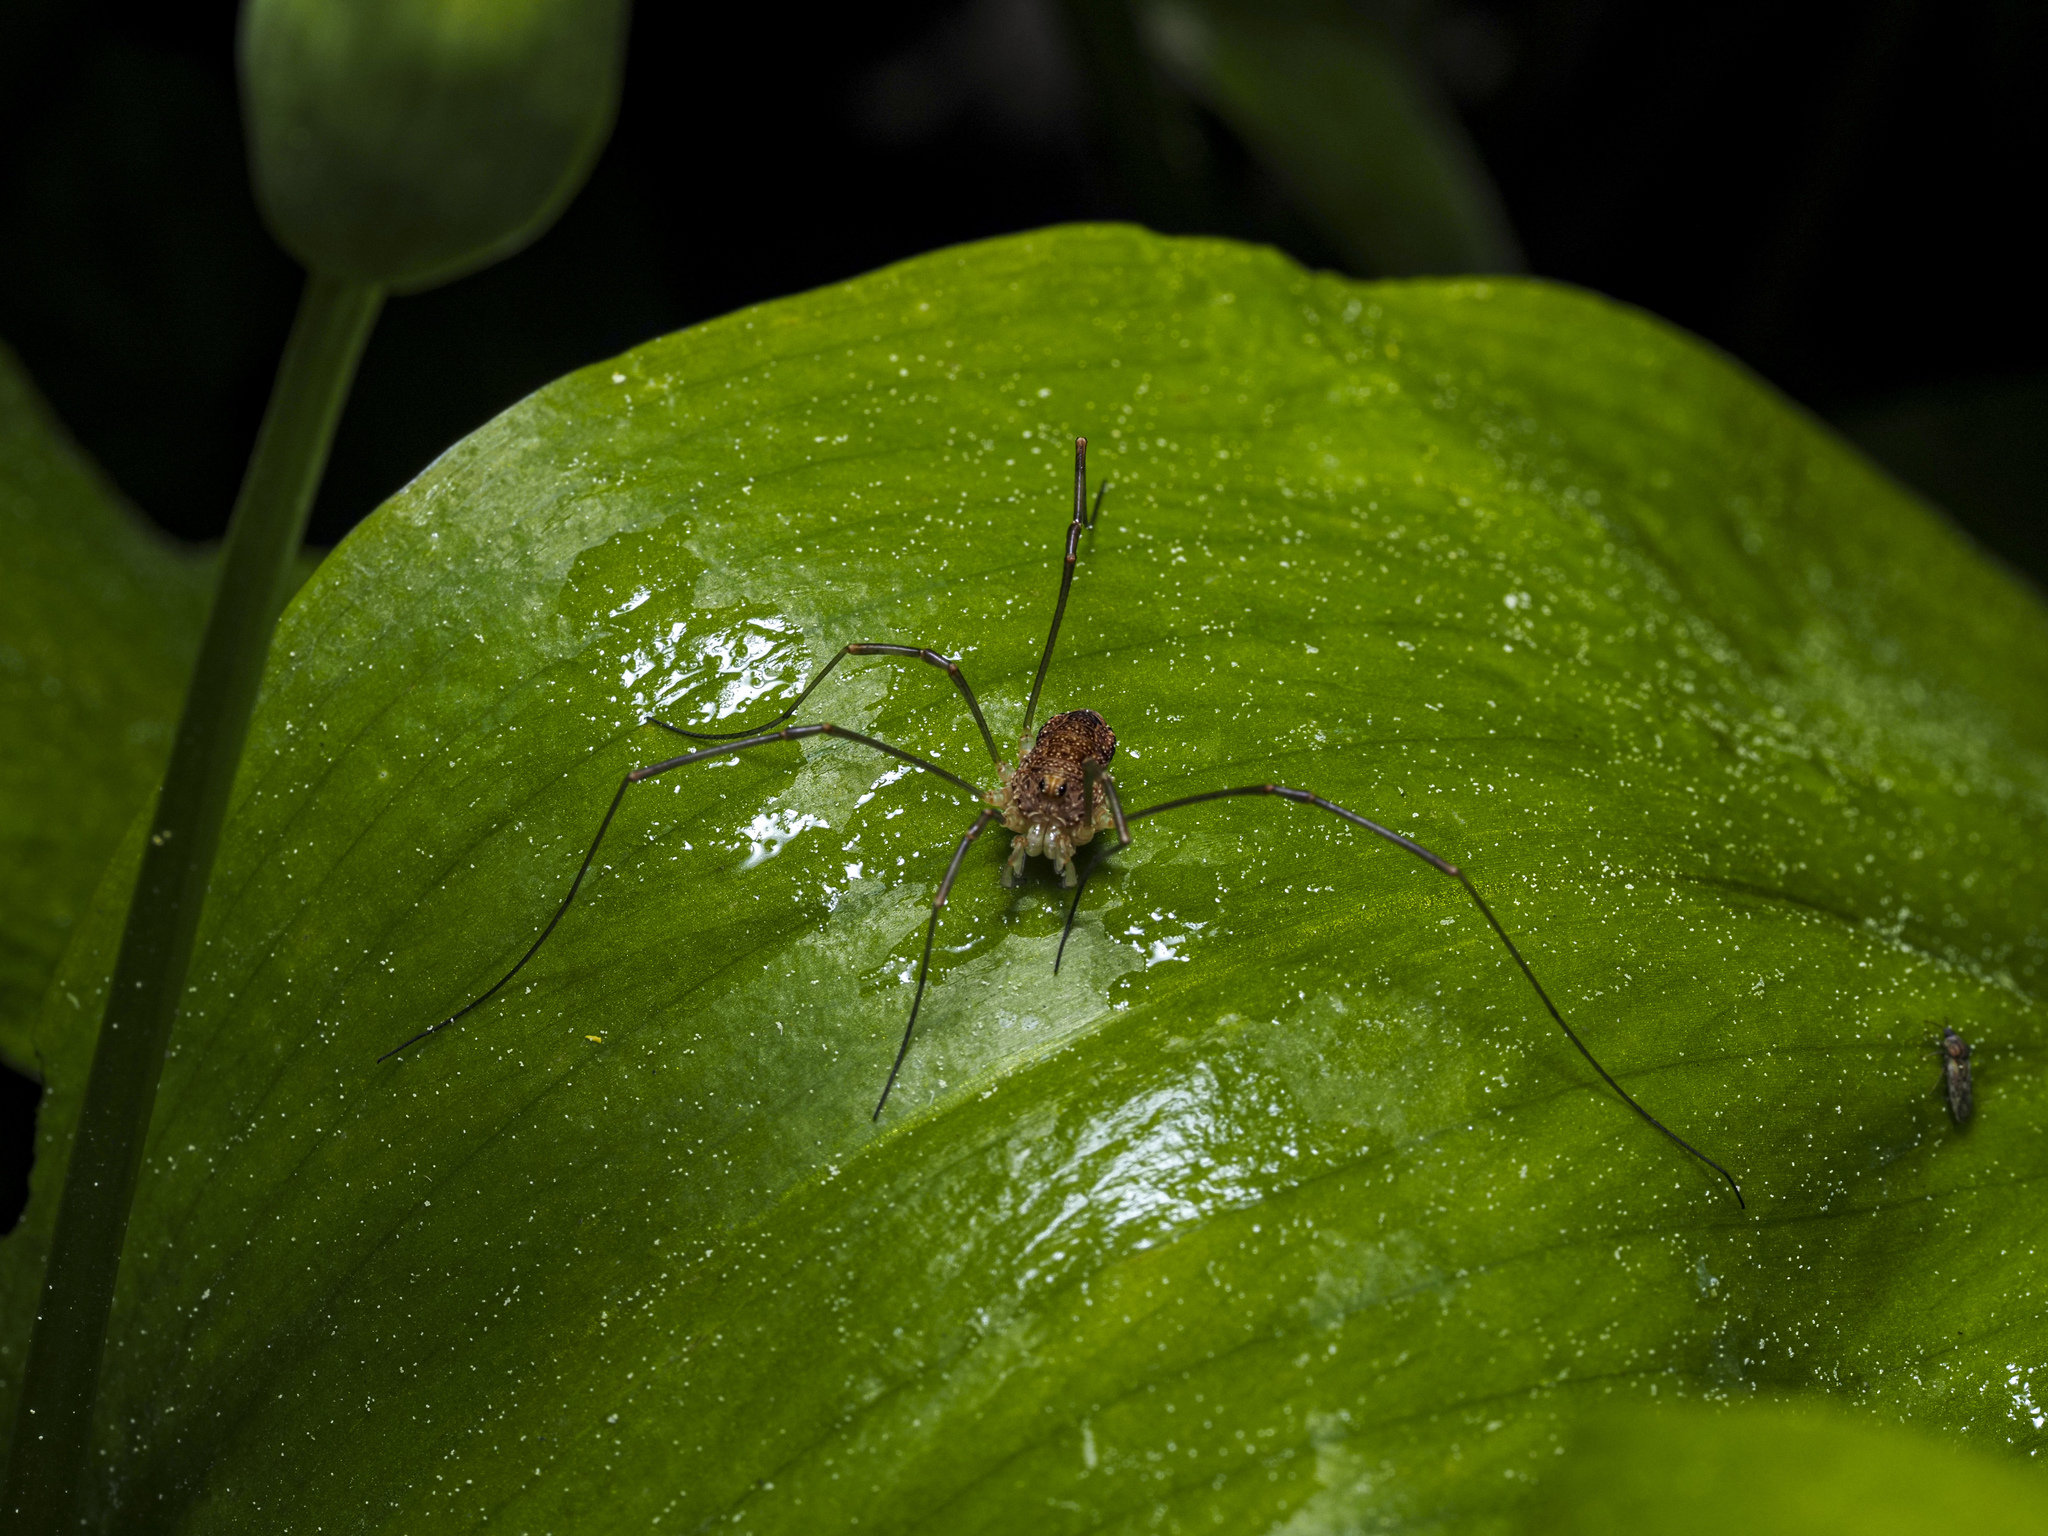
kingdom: Animalia
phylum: Arthropoda
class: Arachnida
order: Opiliones
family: Phalangiidae
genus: Rilaena
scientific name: Rilaena triangularis
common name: Spring harvestman
